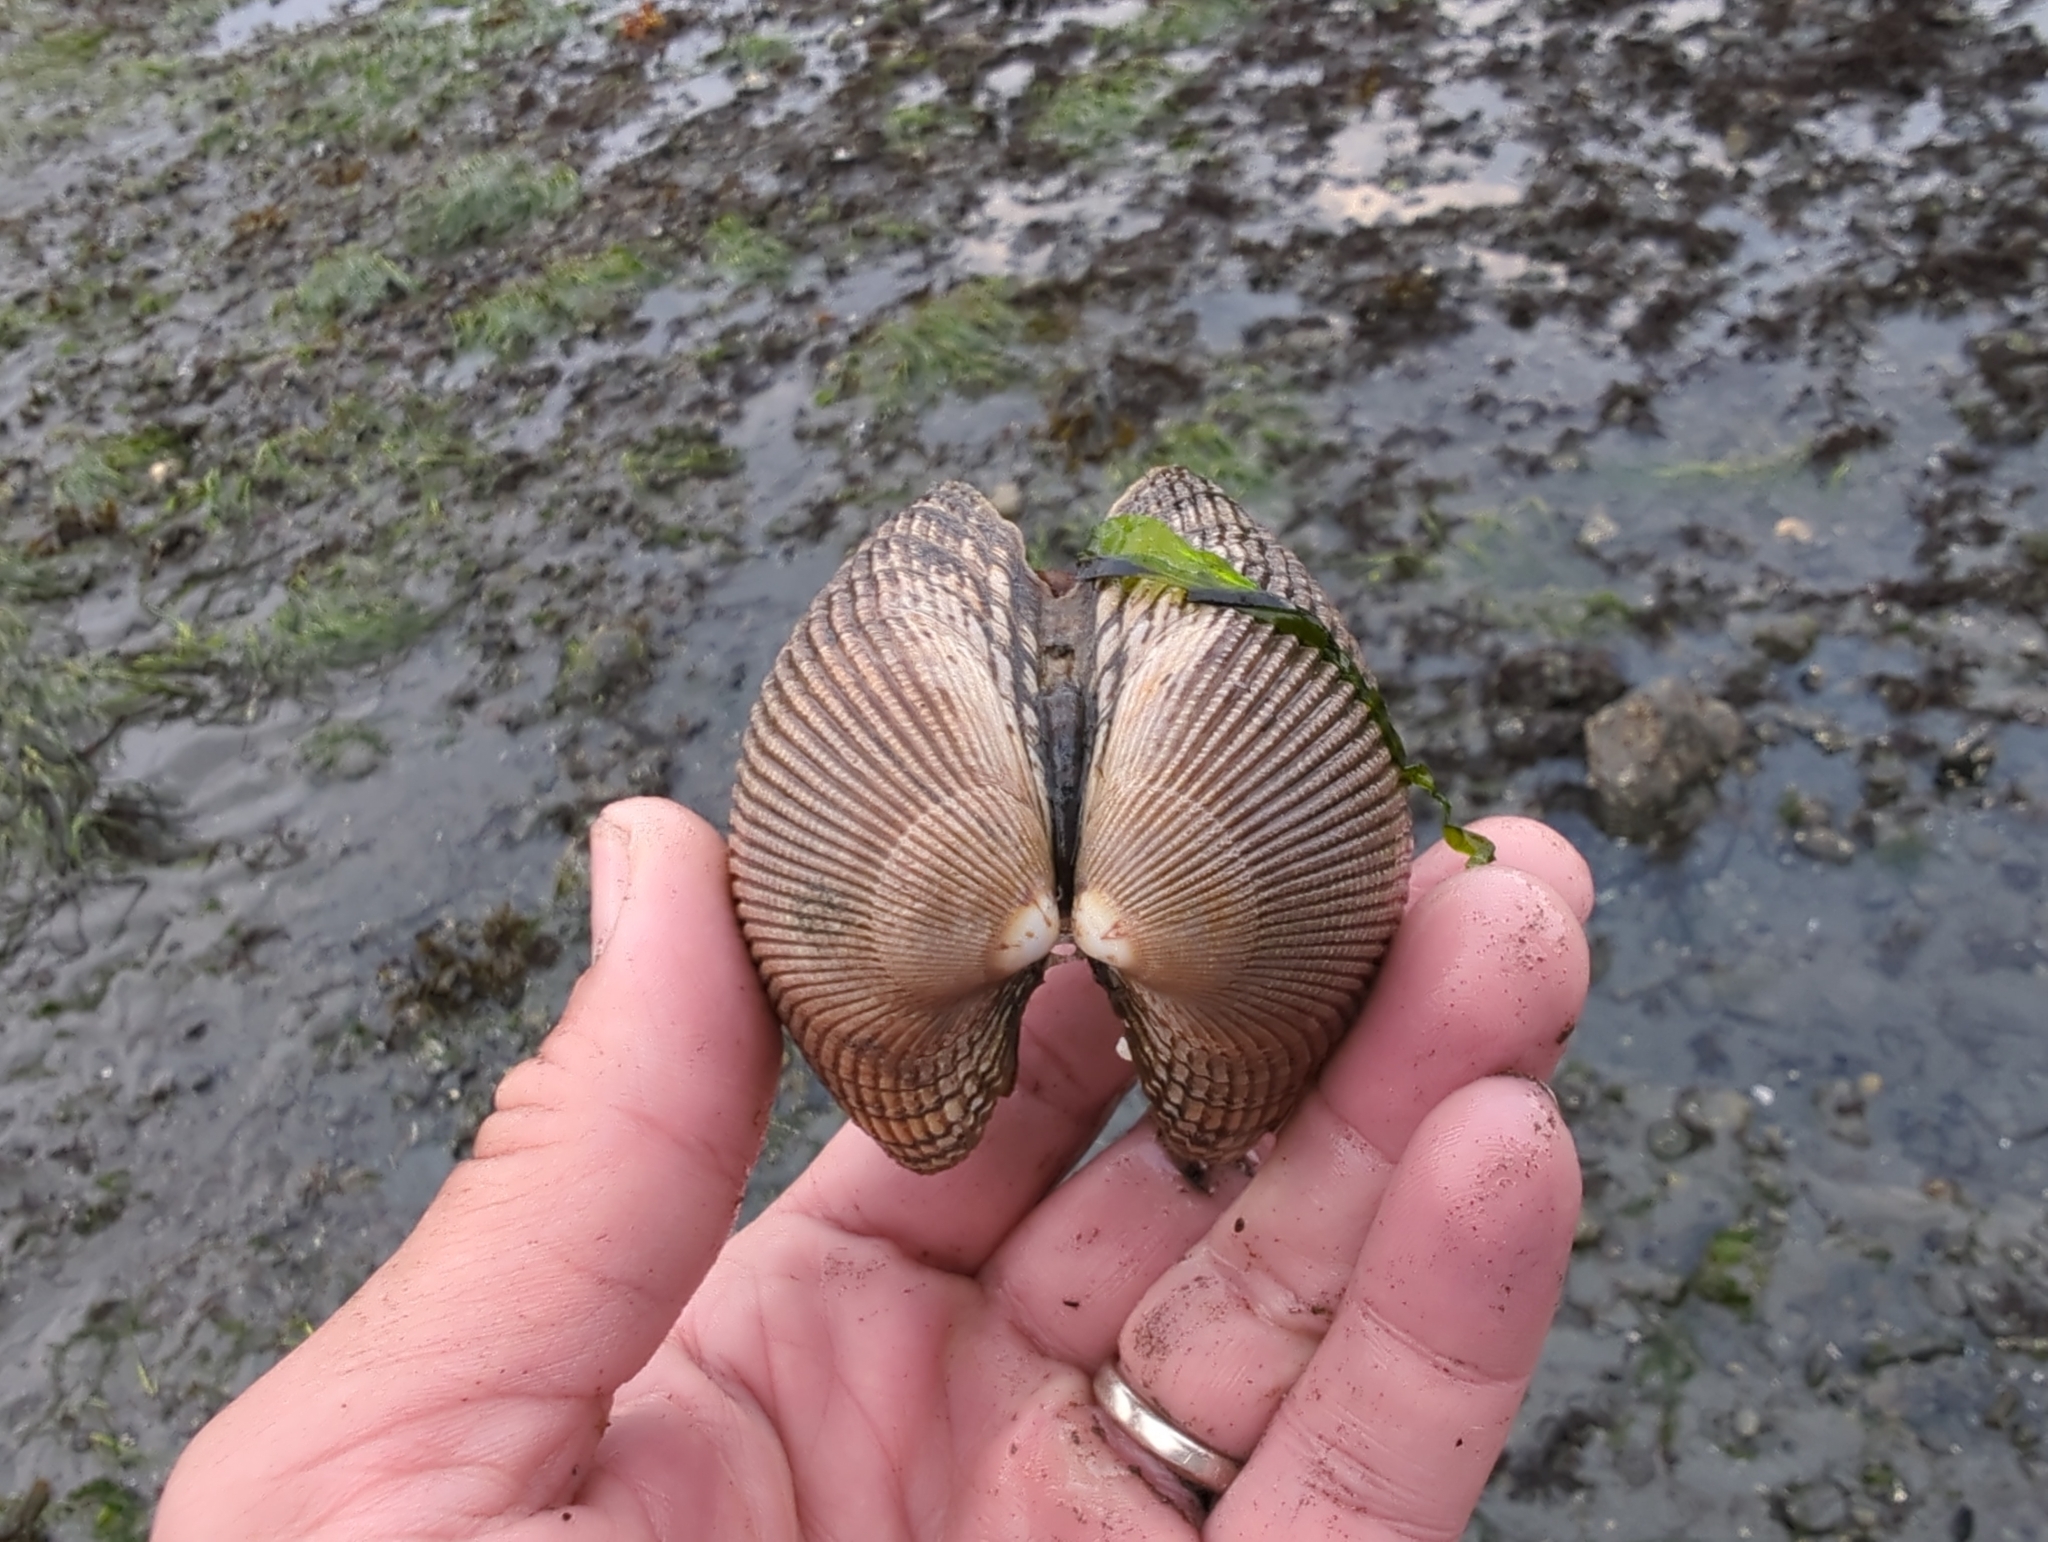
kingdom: Animalia
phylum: Mollusca
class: Bivalvia
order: Cardiida
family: Cardiidae
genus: Clinocardium
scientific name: Clinocardium nuttallii
